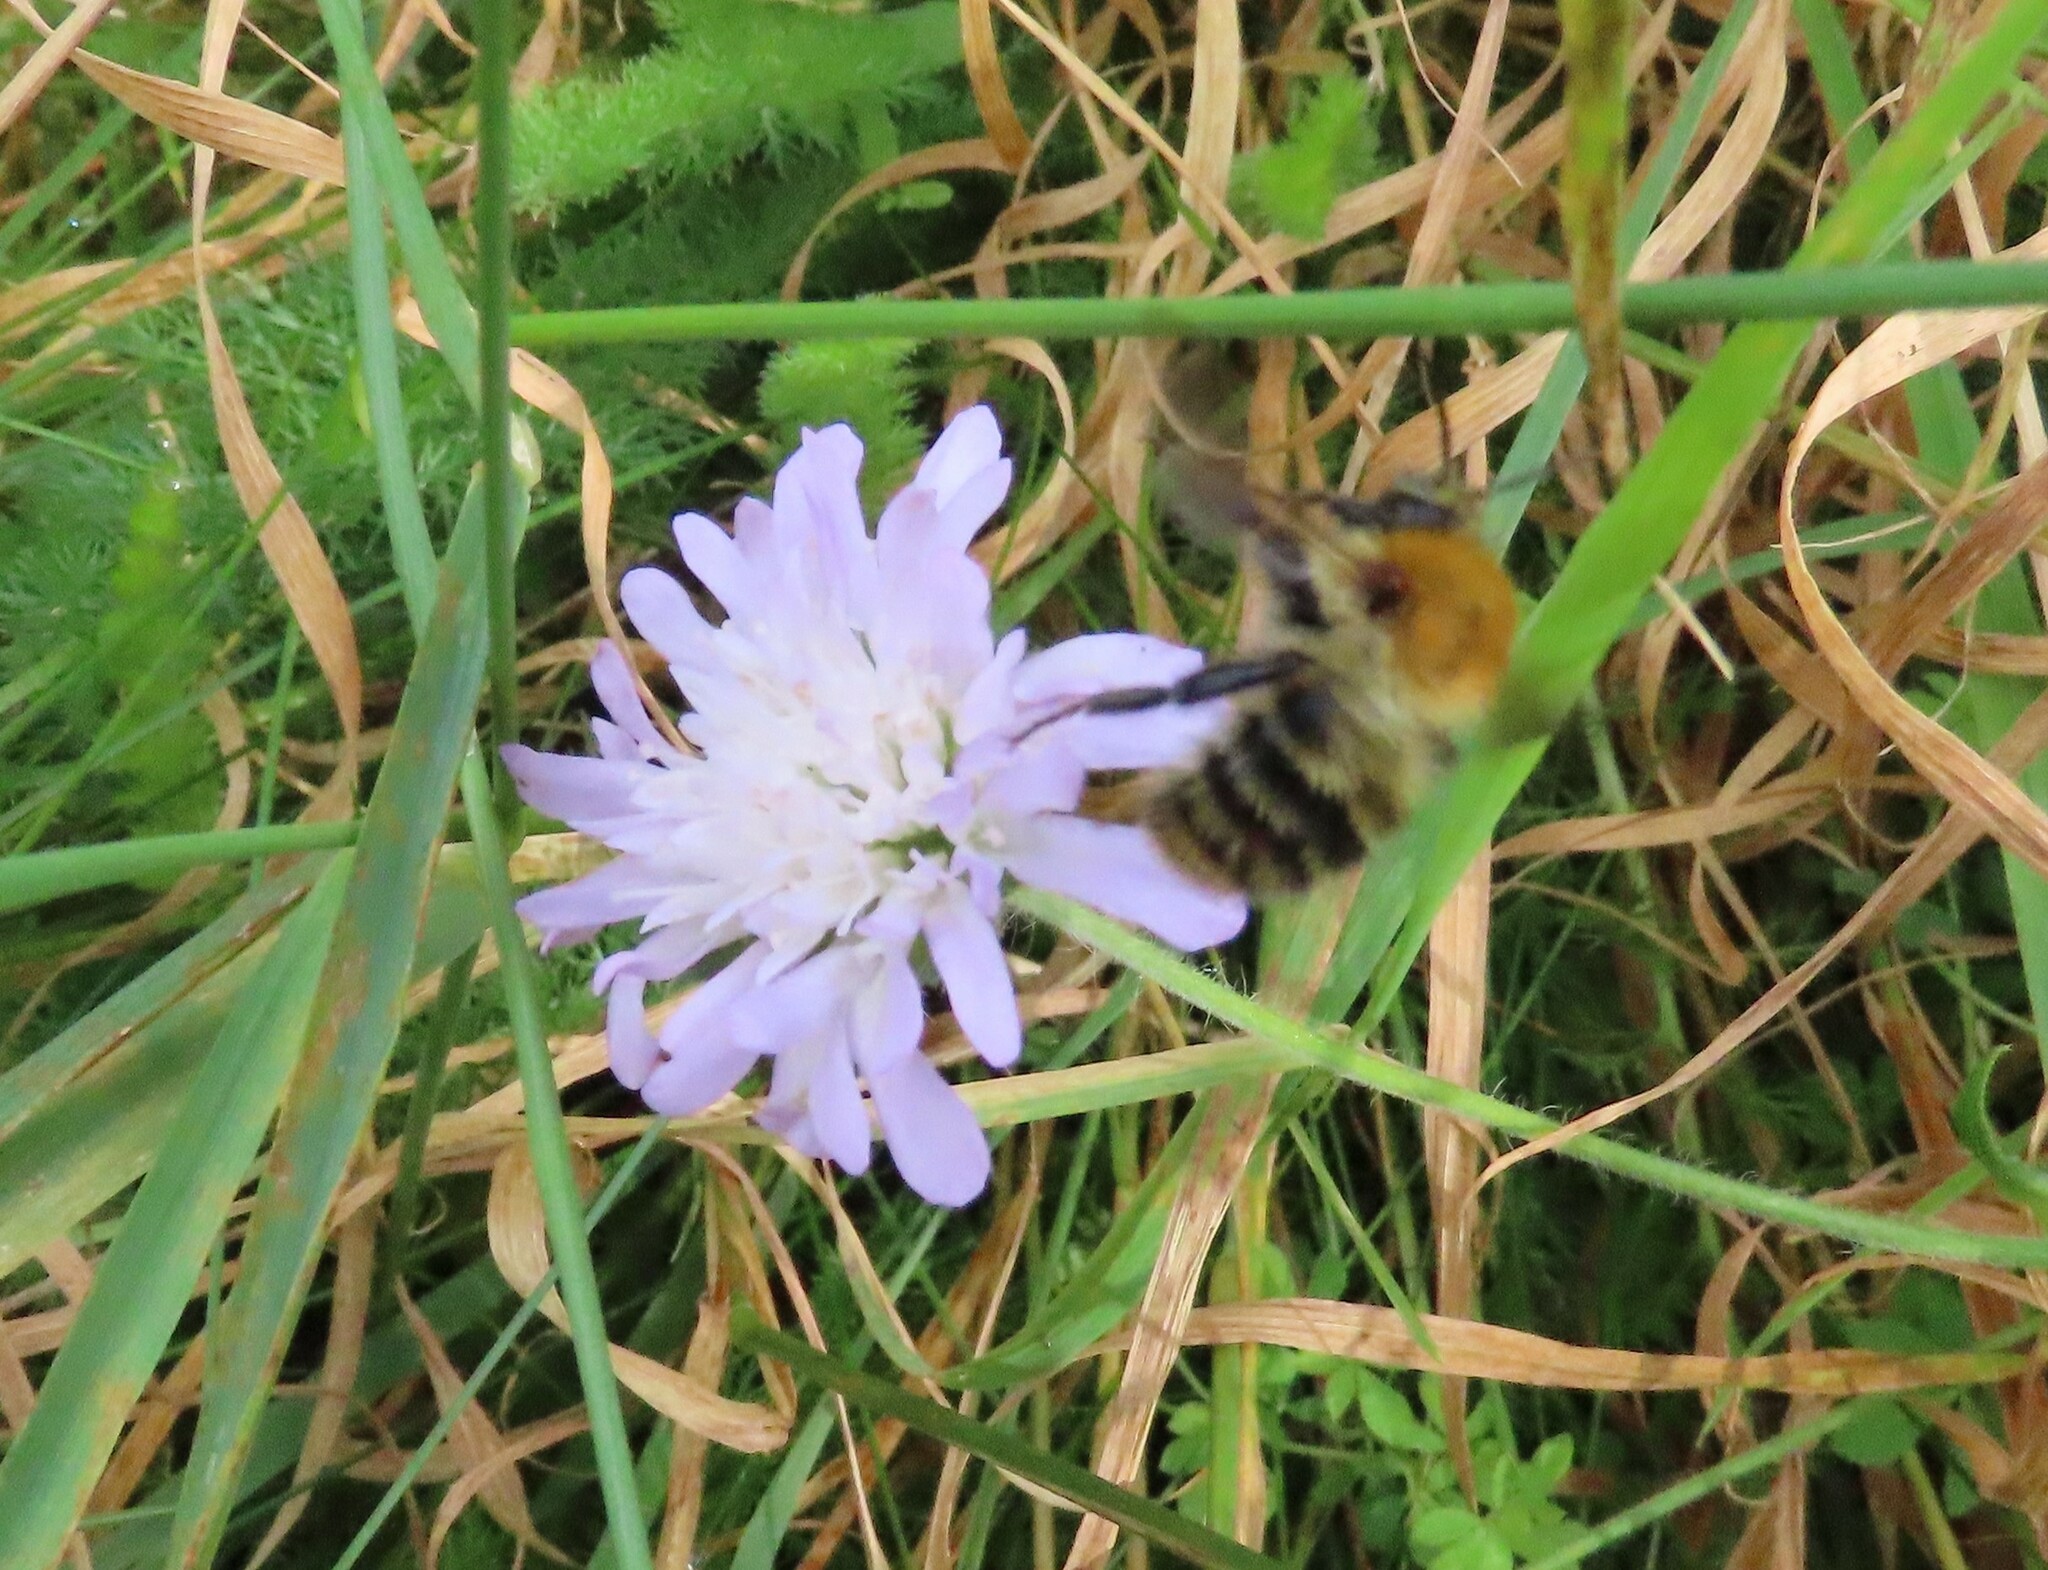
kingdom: Animalia
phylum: Arthropoda
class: Insecta
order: Hymenoptera
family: Apidae
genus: Bombus
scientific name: Bombus pascuorum
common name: Common carder bee
